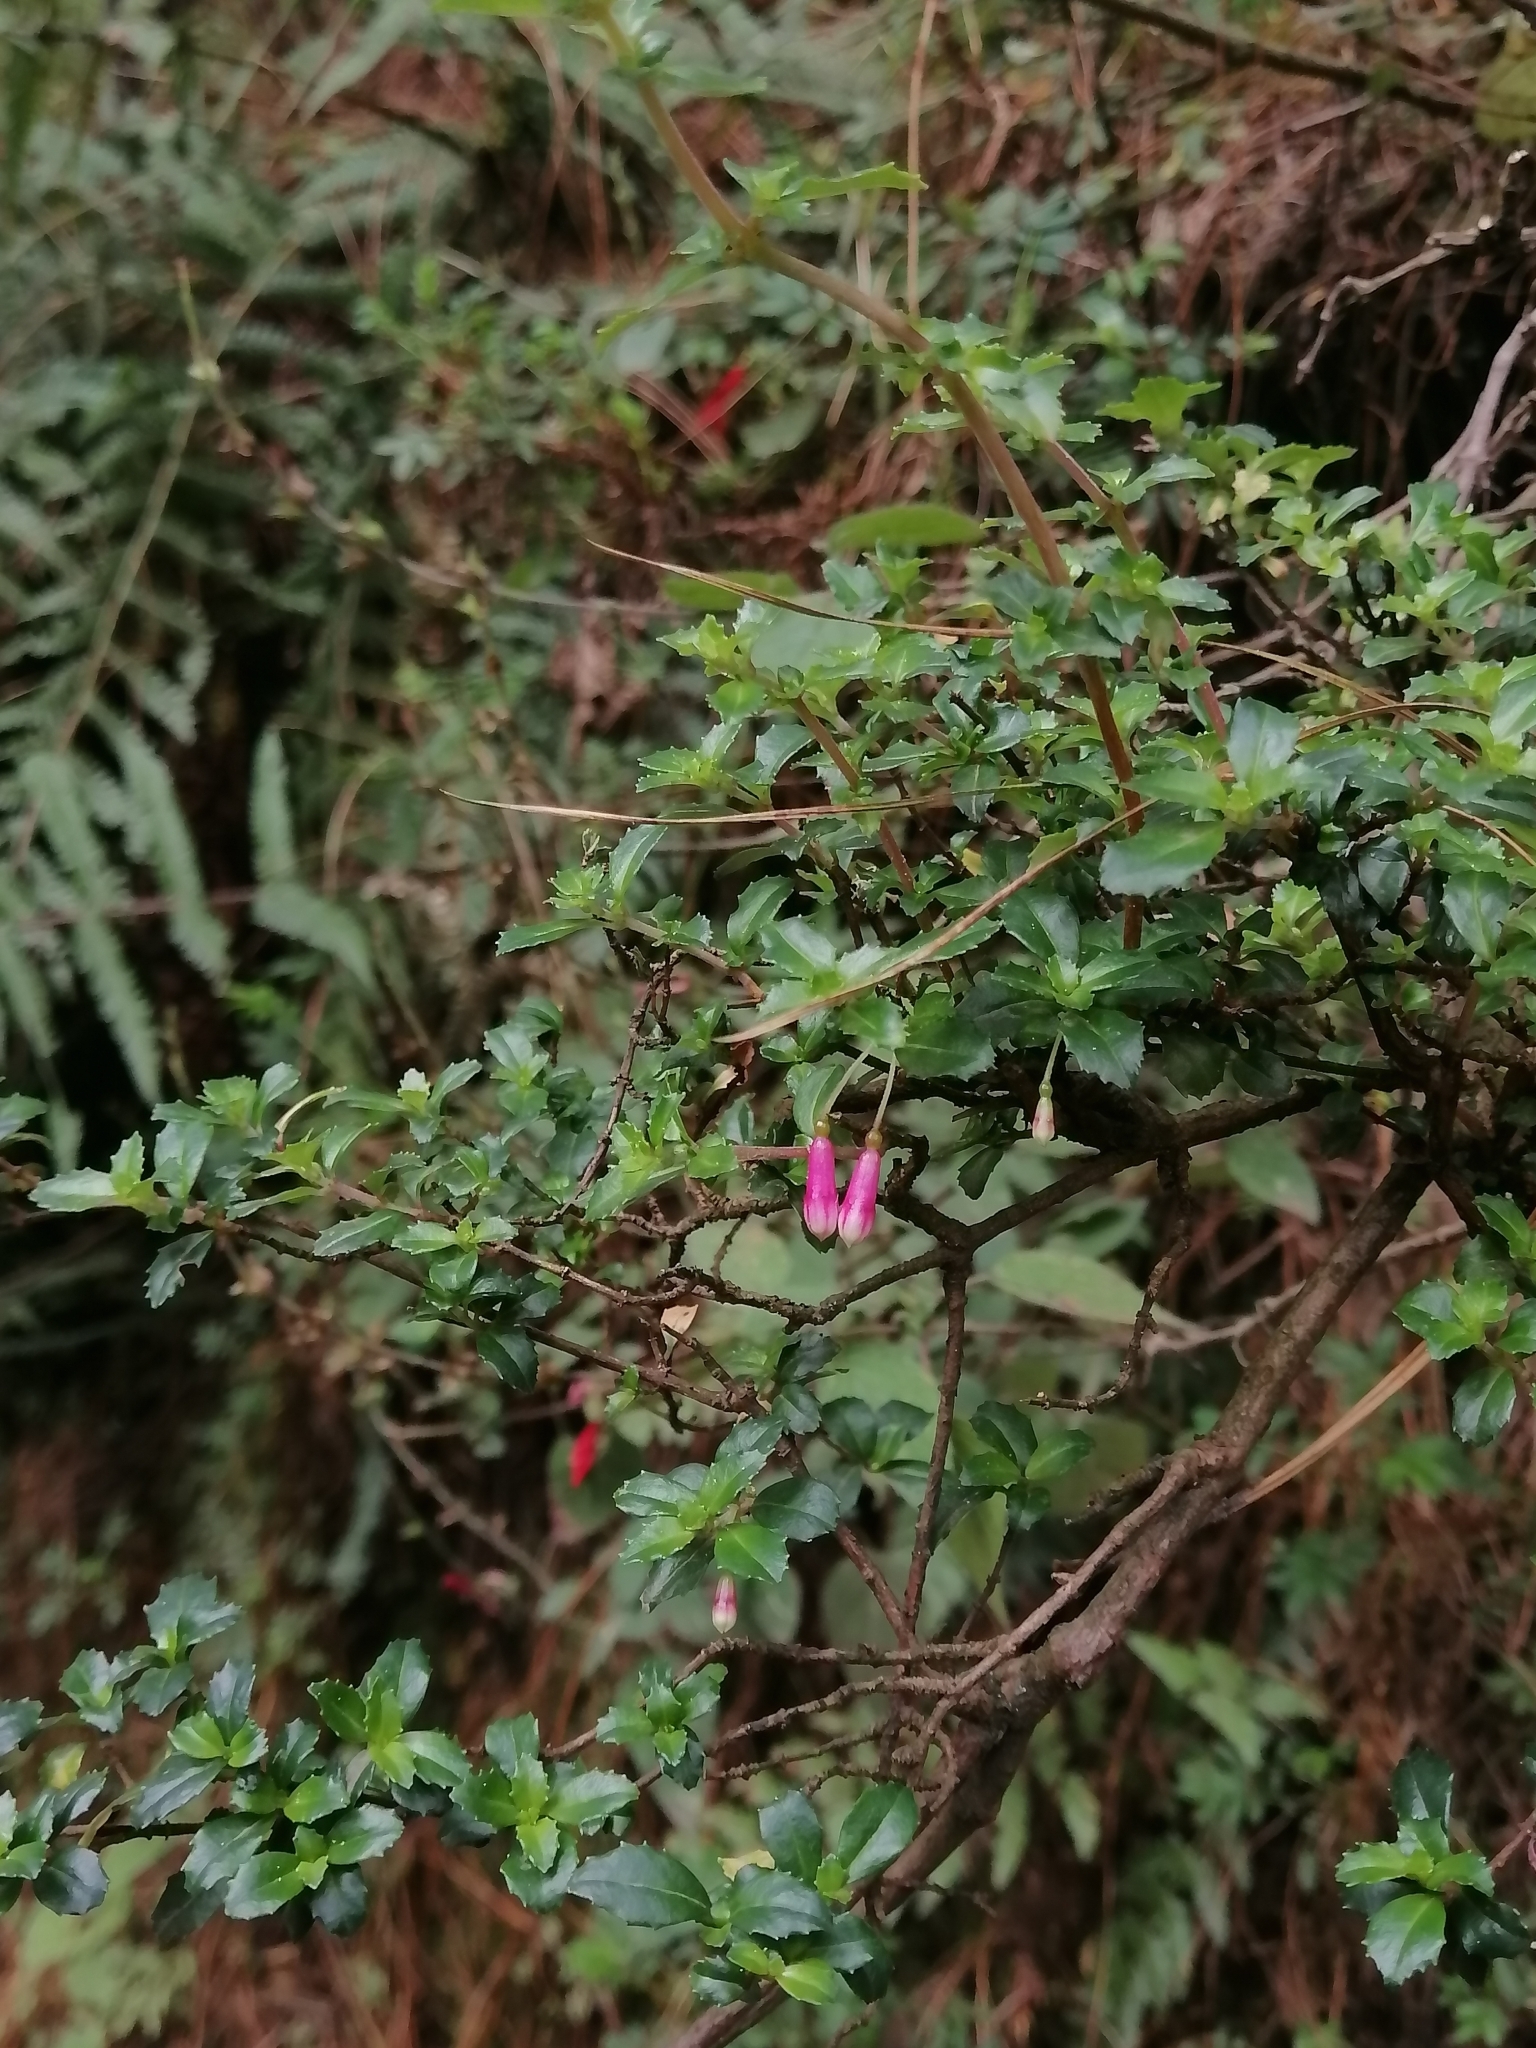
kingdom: Plantae
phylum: Tracheophyta
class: Magnoliopsida
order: Myrtales
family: Onagraceae
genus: Fuchsia
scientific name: Fuchsia microphylla
